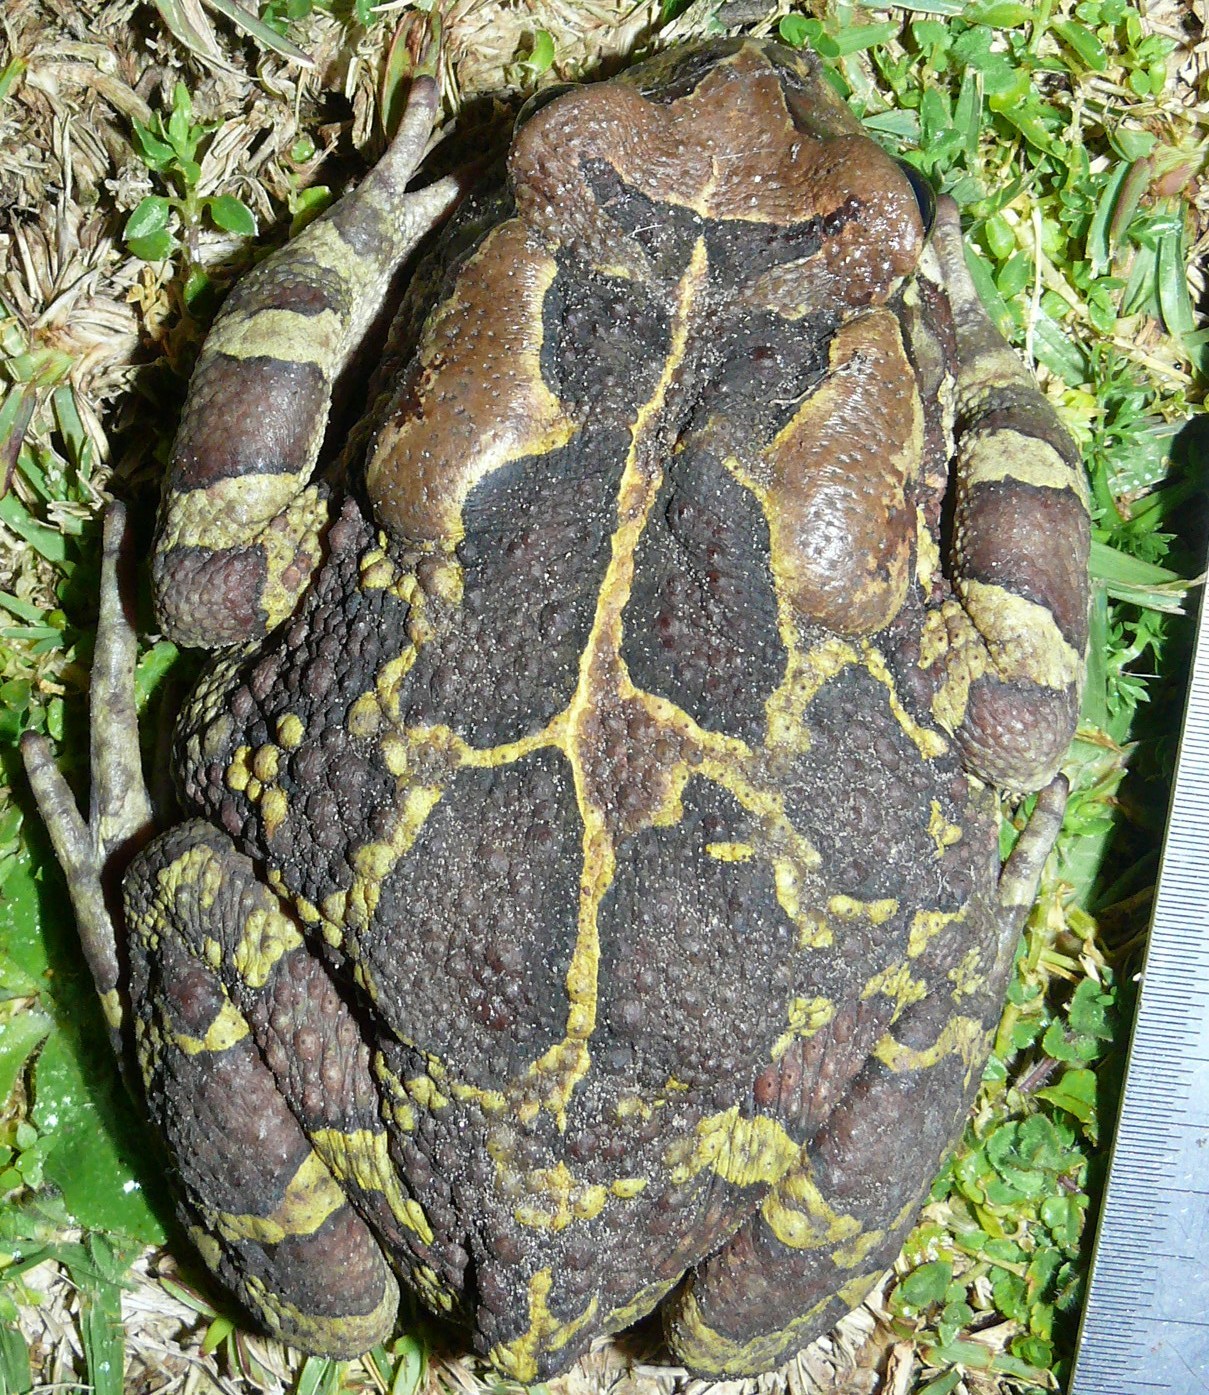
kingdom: Animalia
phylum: Chordata
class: Amphibia
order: Anura
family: Bufonidae
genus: Sclerophrys
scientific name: Sclerophrys pantherina
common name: Panther toad
